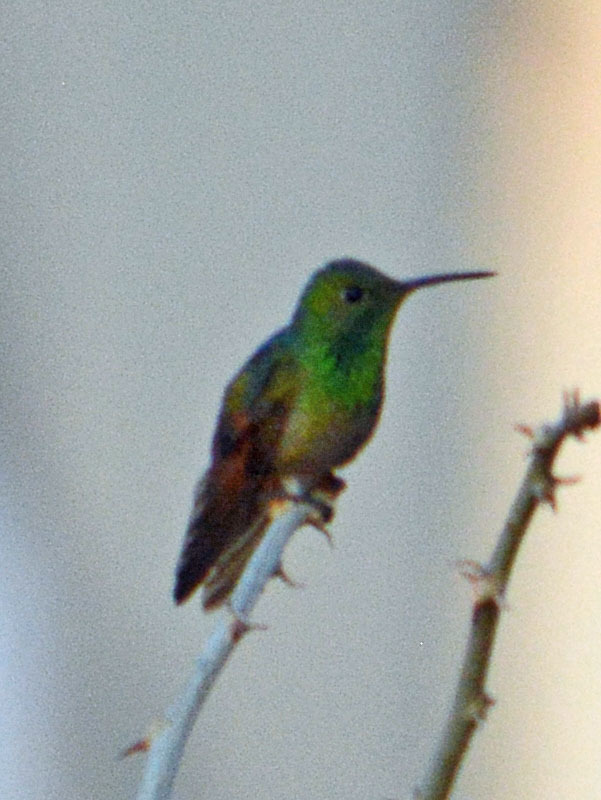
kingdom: Animalia
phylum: Chordata
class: Aves
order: Apodiformes
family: Trochilidae
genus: Saucerottia
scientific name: Saucerottia beryllina
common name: Berylline hummingbird
